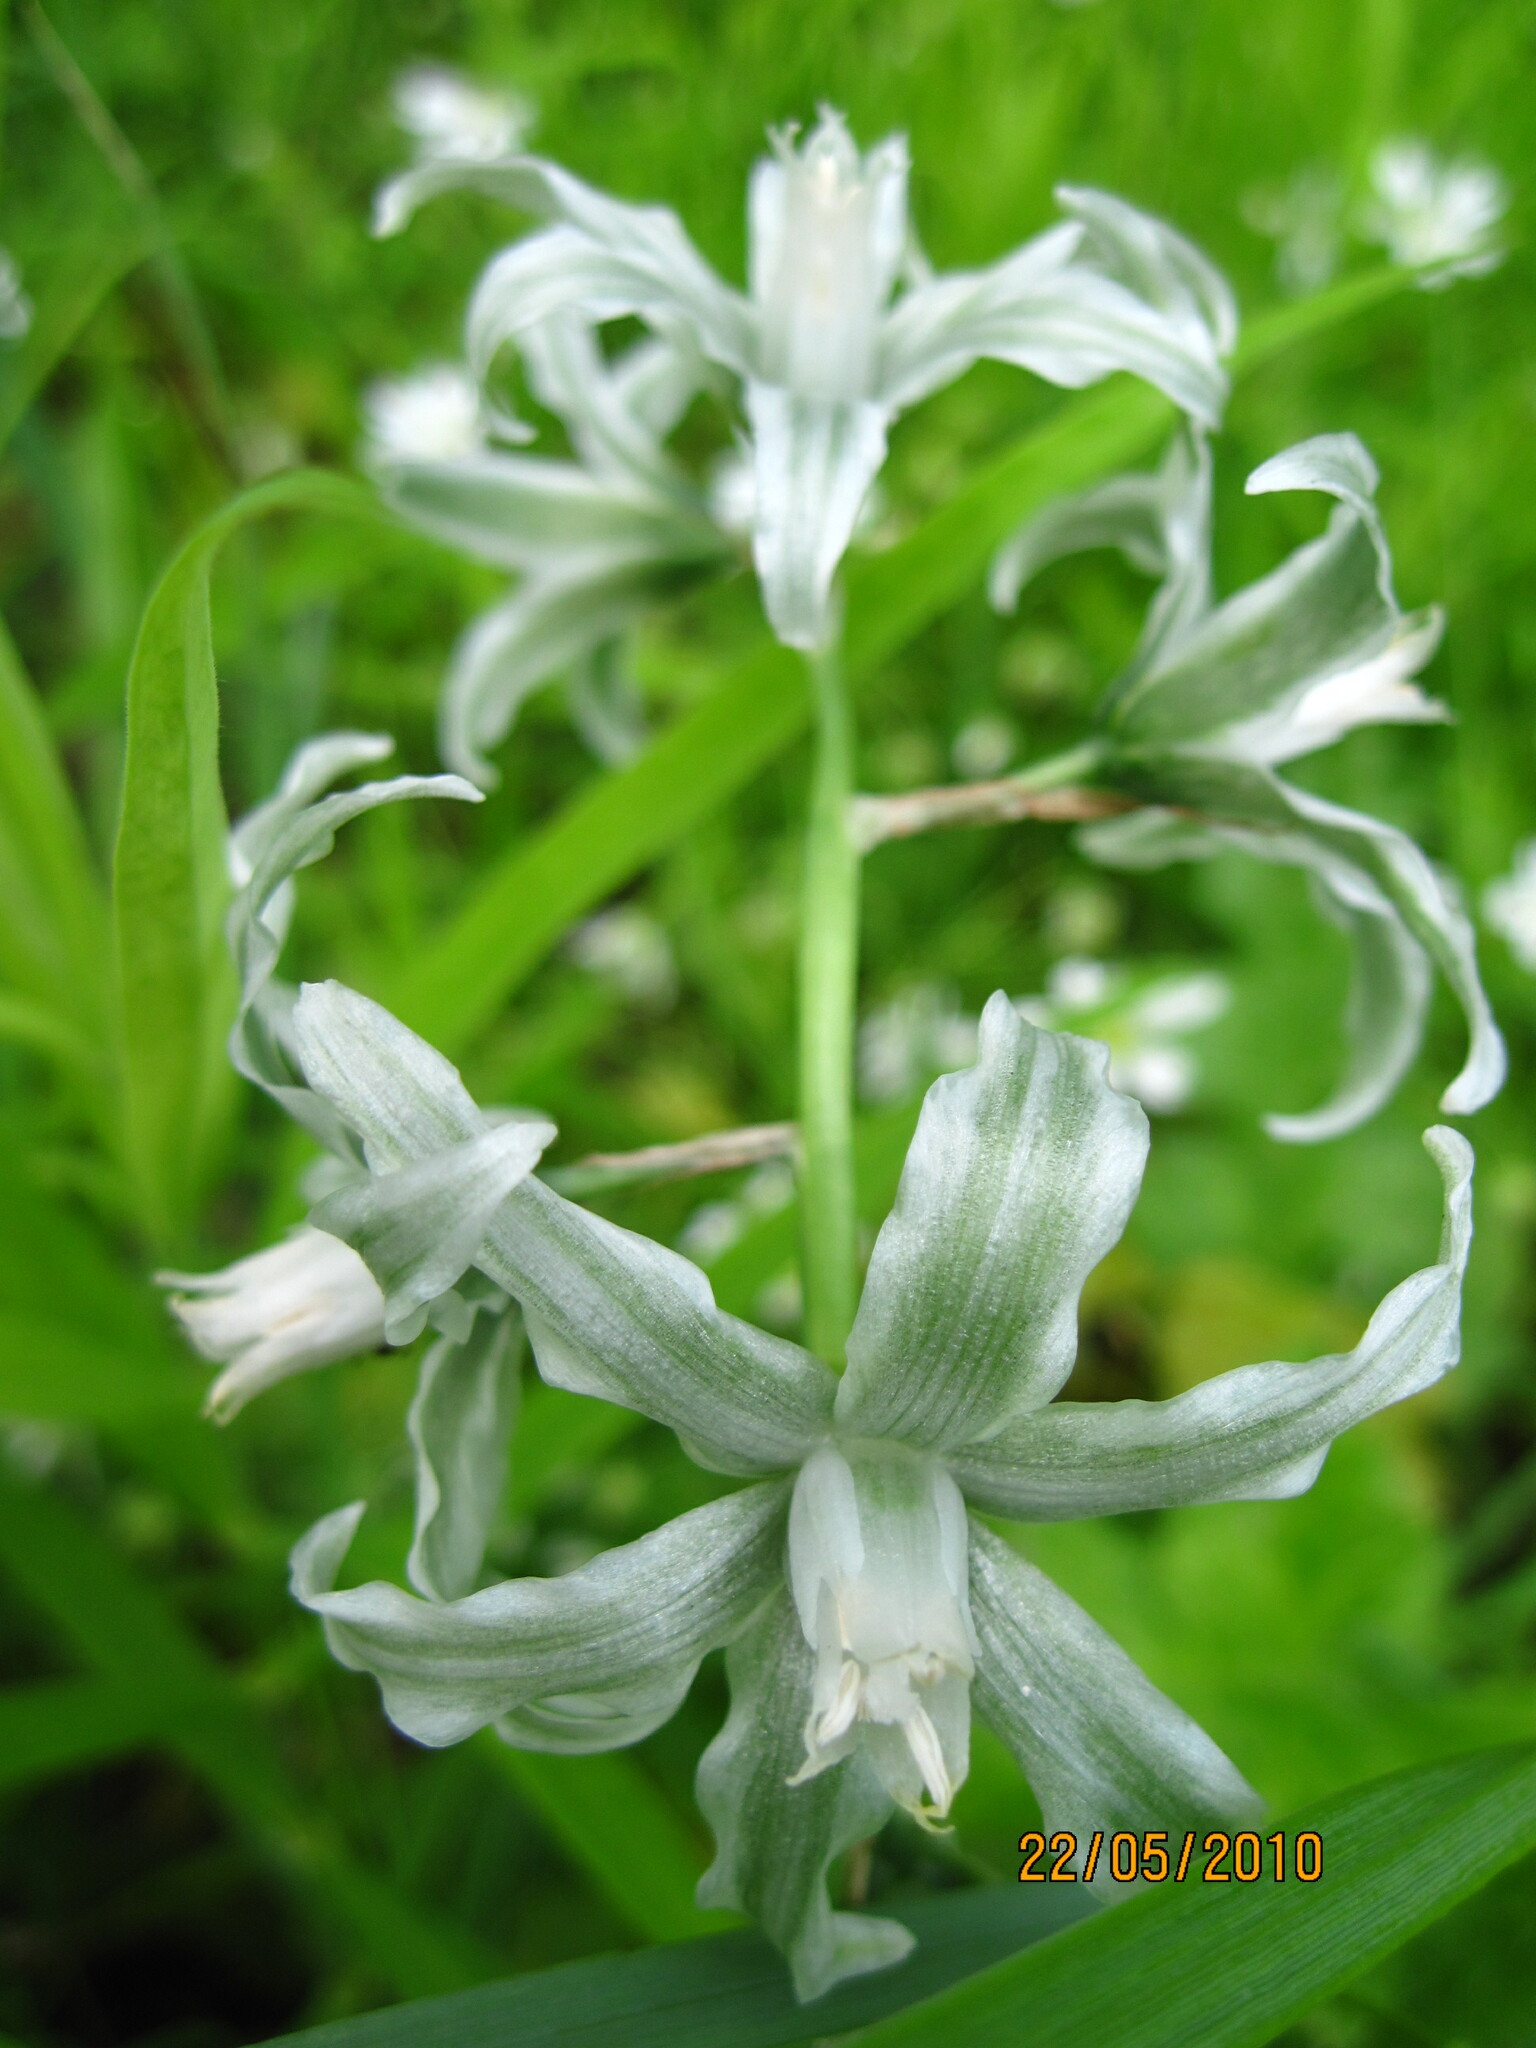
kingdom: Plantae
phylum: Tracheophyta
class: Liliopsida
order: Asparagales
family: Asparagaceae
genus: Ornithogalum
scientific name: Ornithogalum boucheanum
